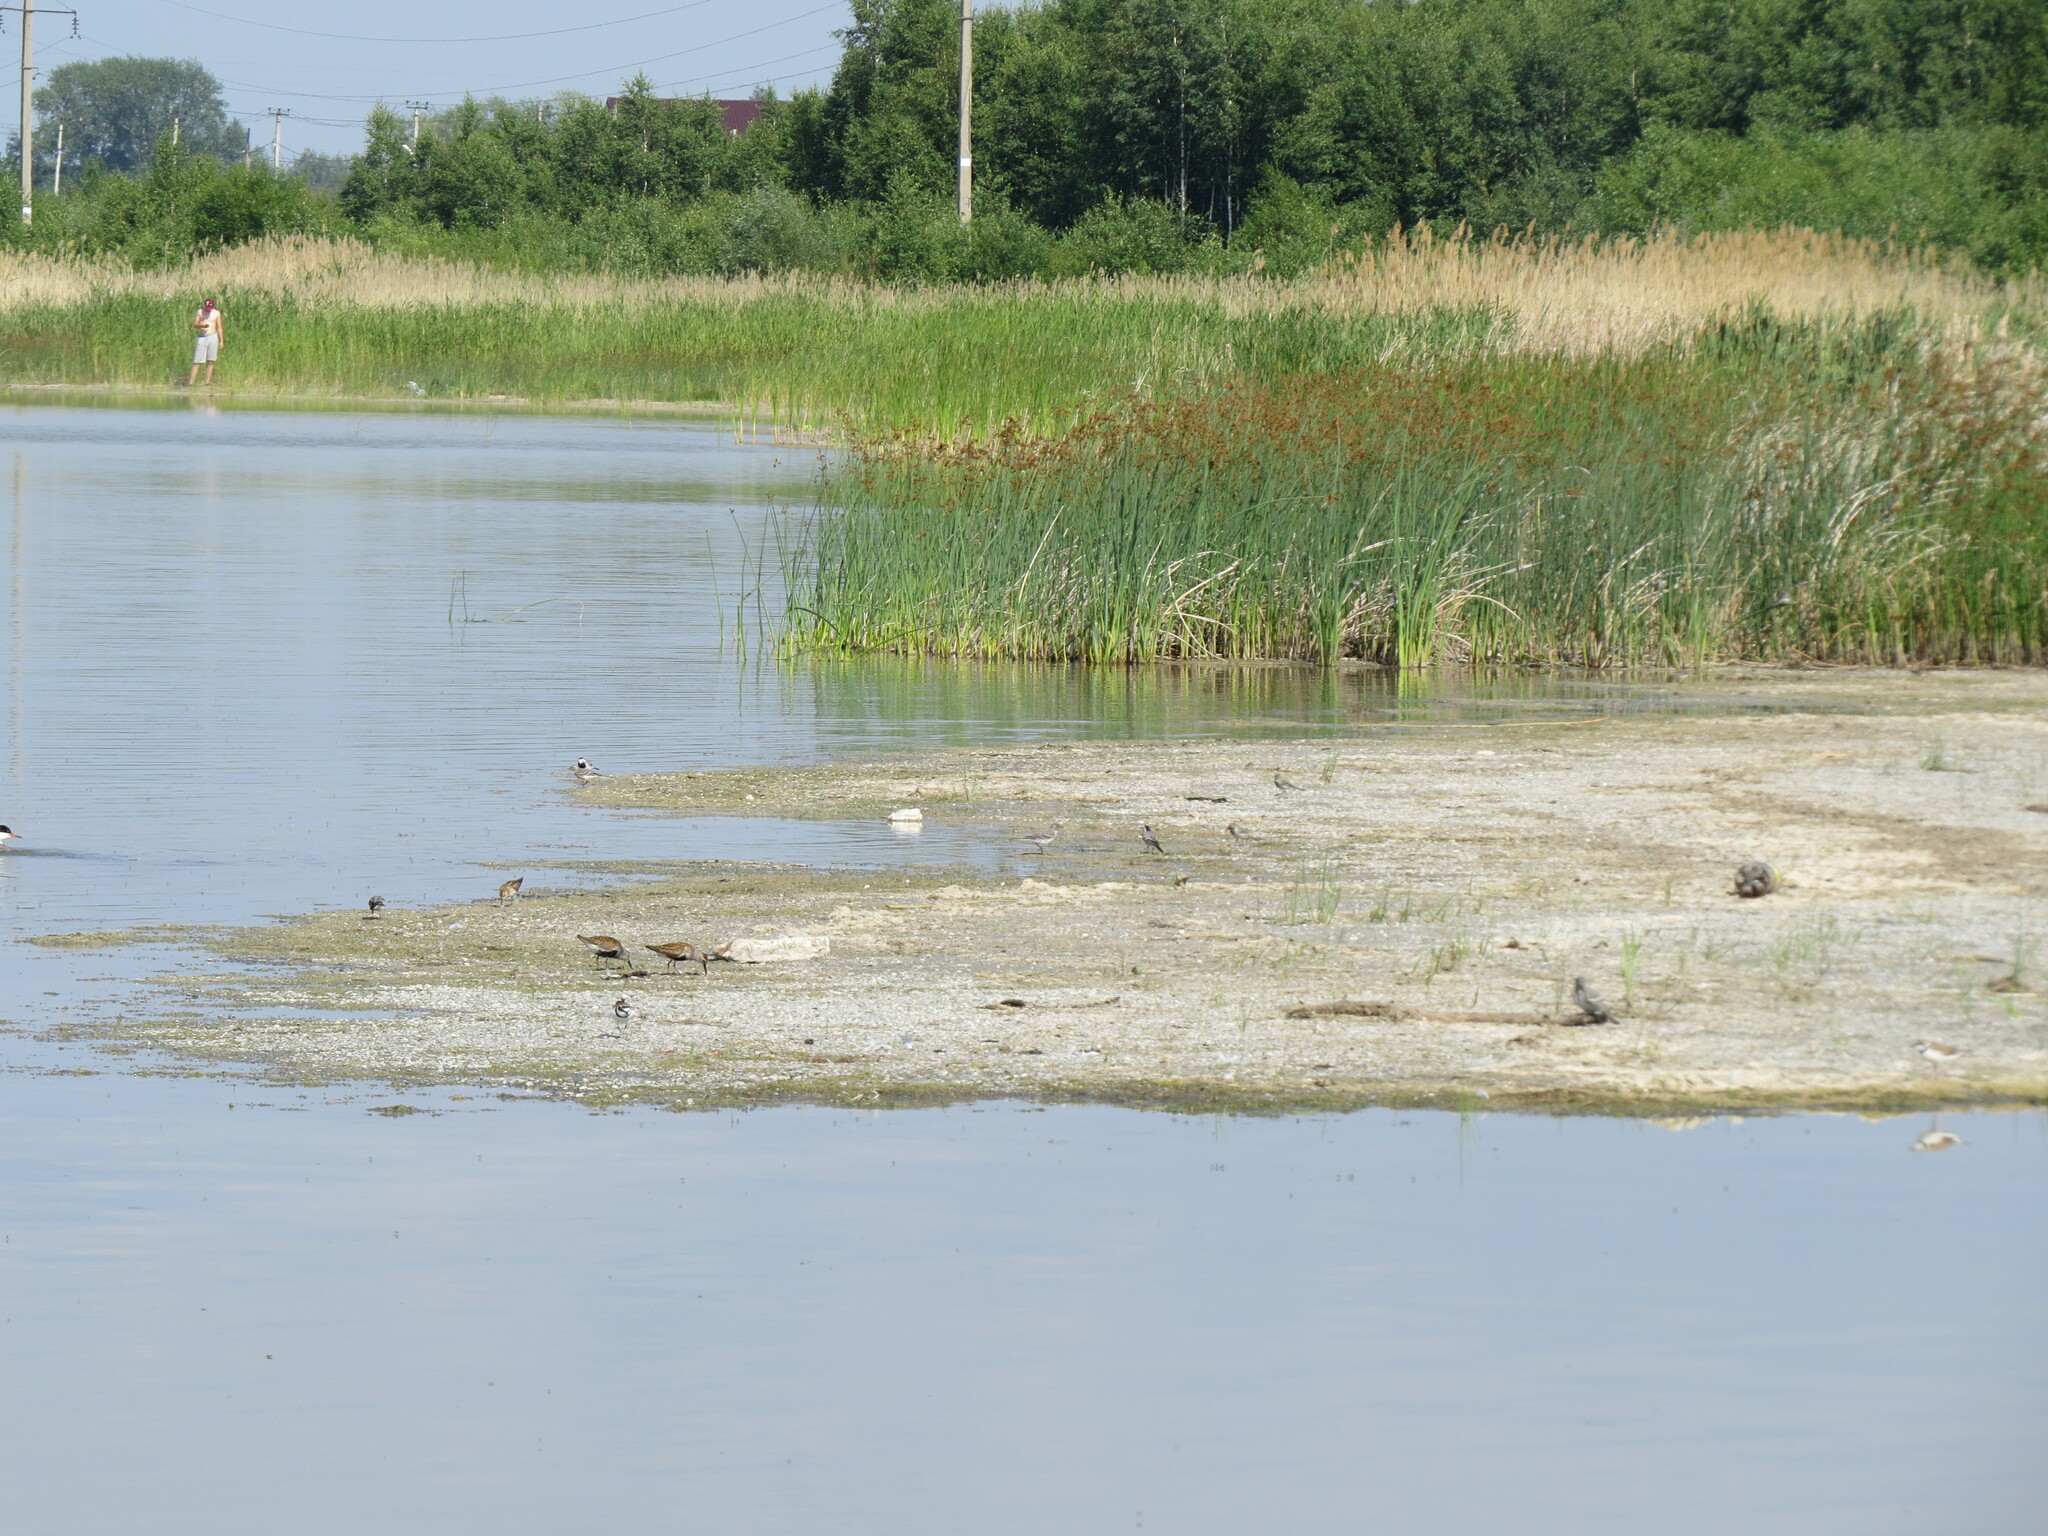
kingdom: Animalia
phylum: Chordata
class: Aves
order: Charadriiformes
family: Scolopacidae
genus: Calidris
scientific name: Calidris alpina
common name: Dunlin
